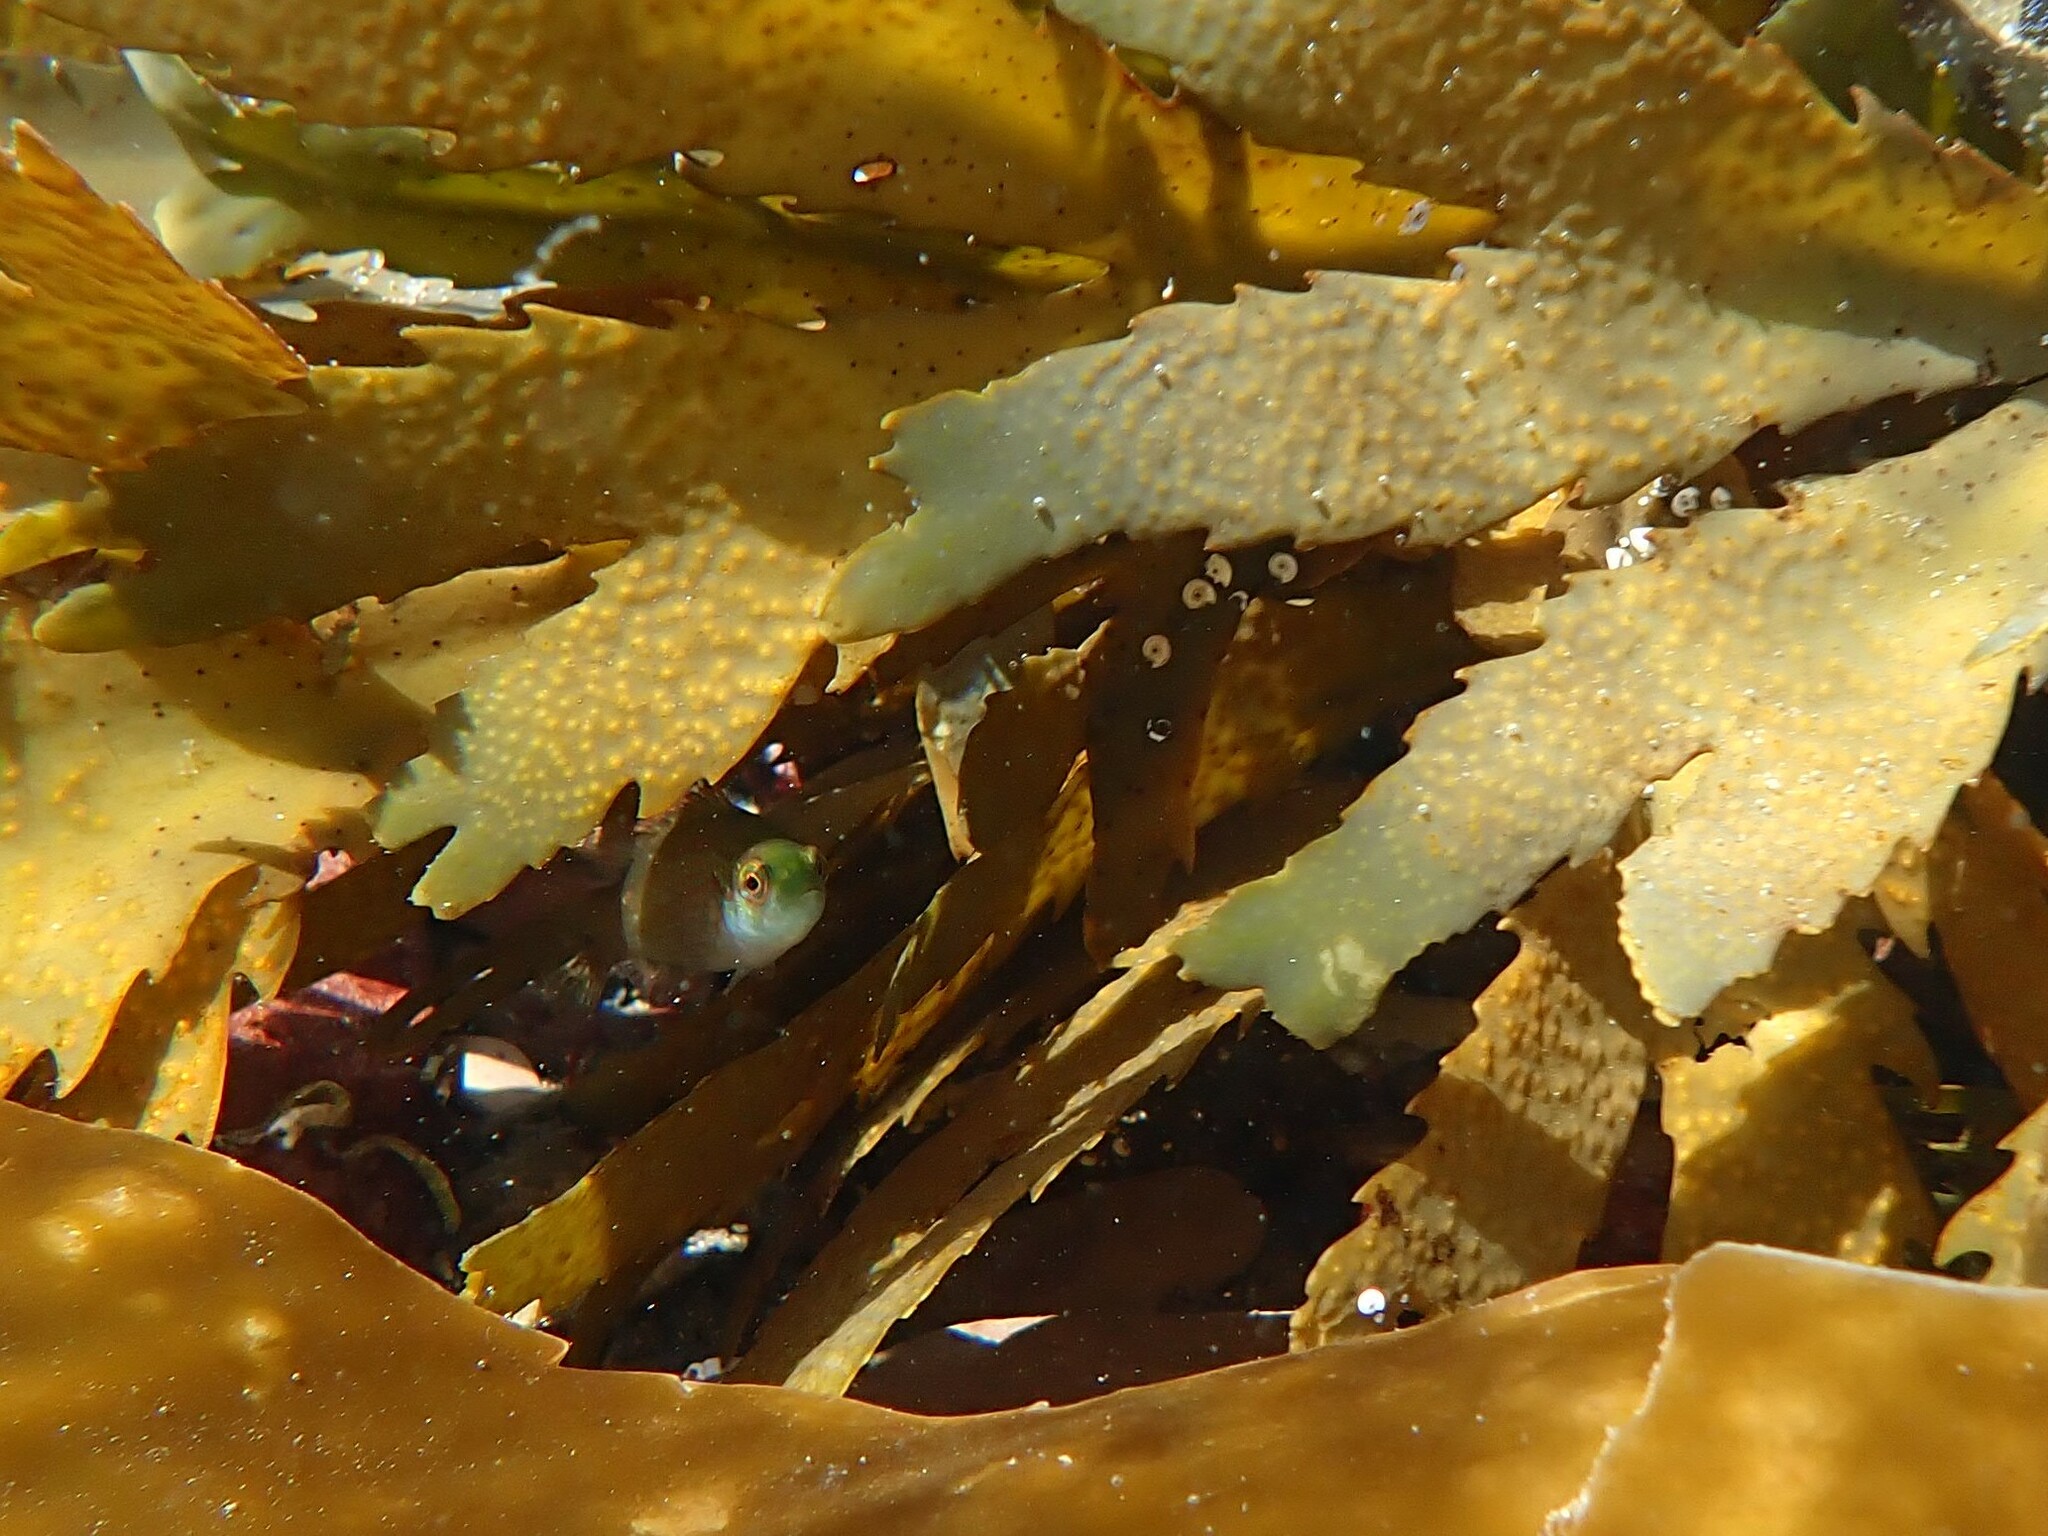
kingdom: Animalia
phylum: Chordata
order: Perciformes
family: Labridae
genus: Symphodus
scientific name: Symphodus melops
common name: Corkwing
